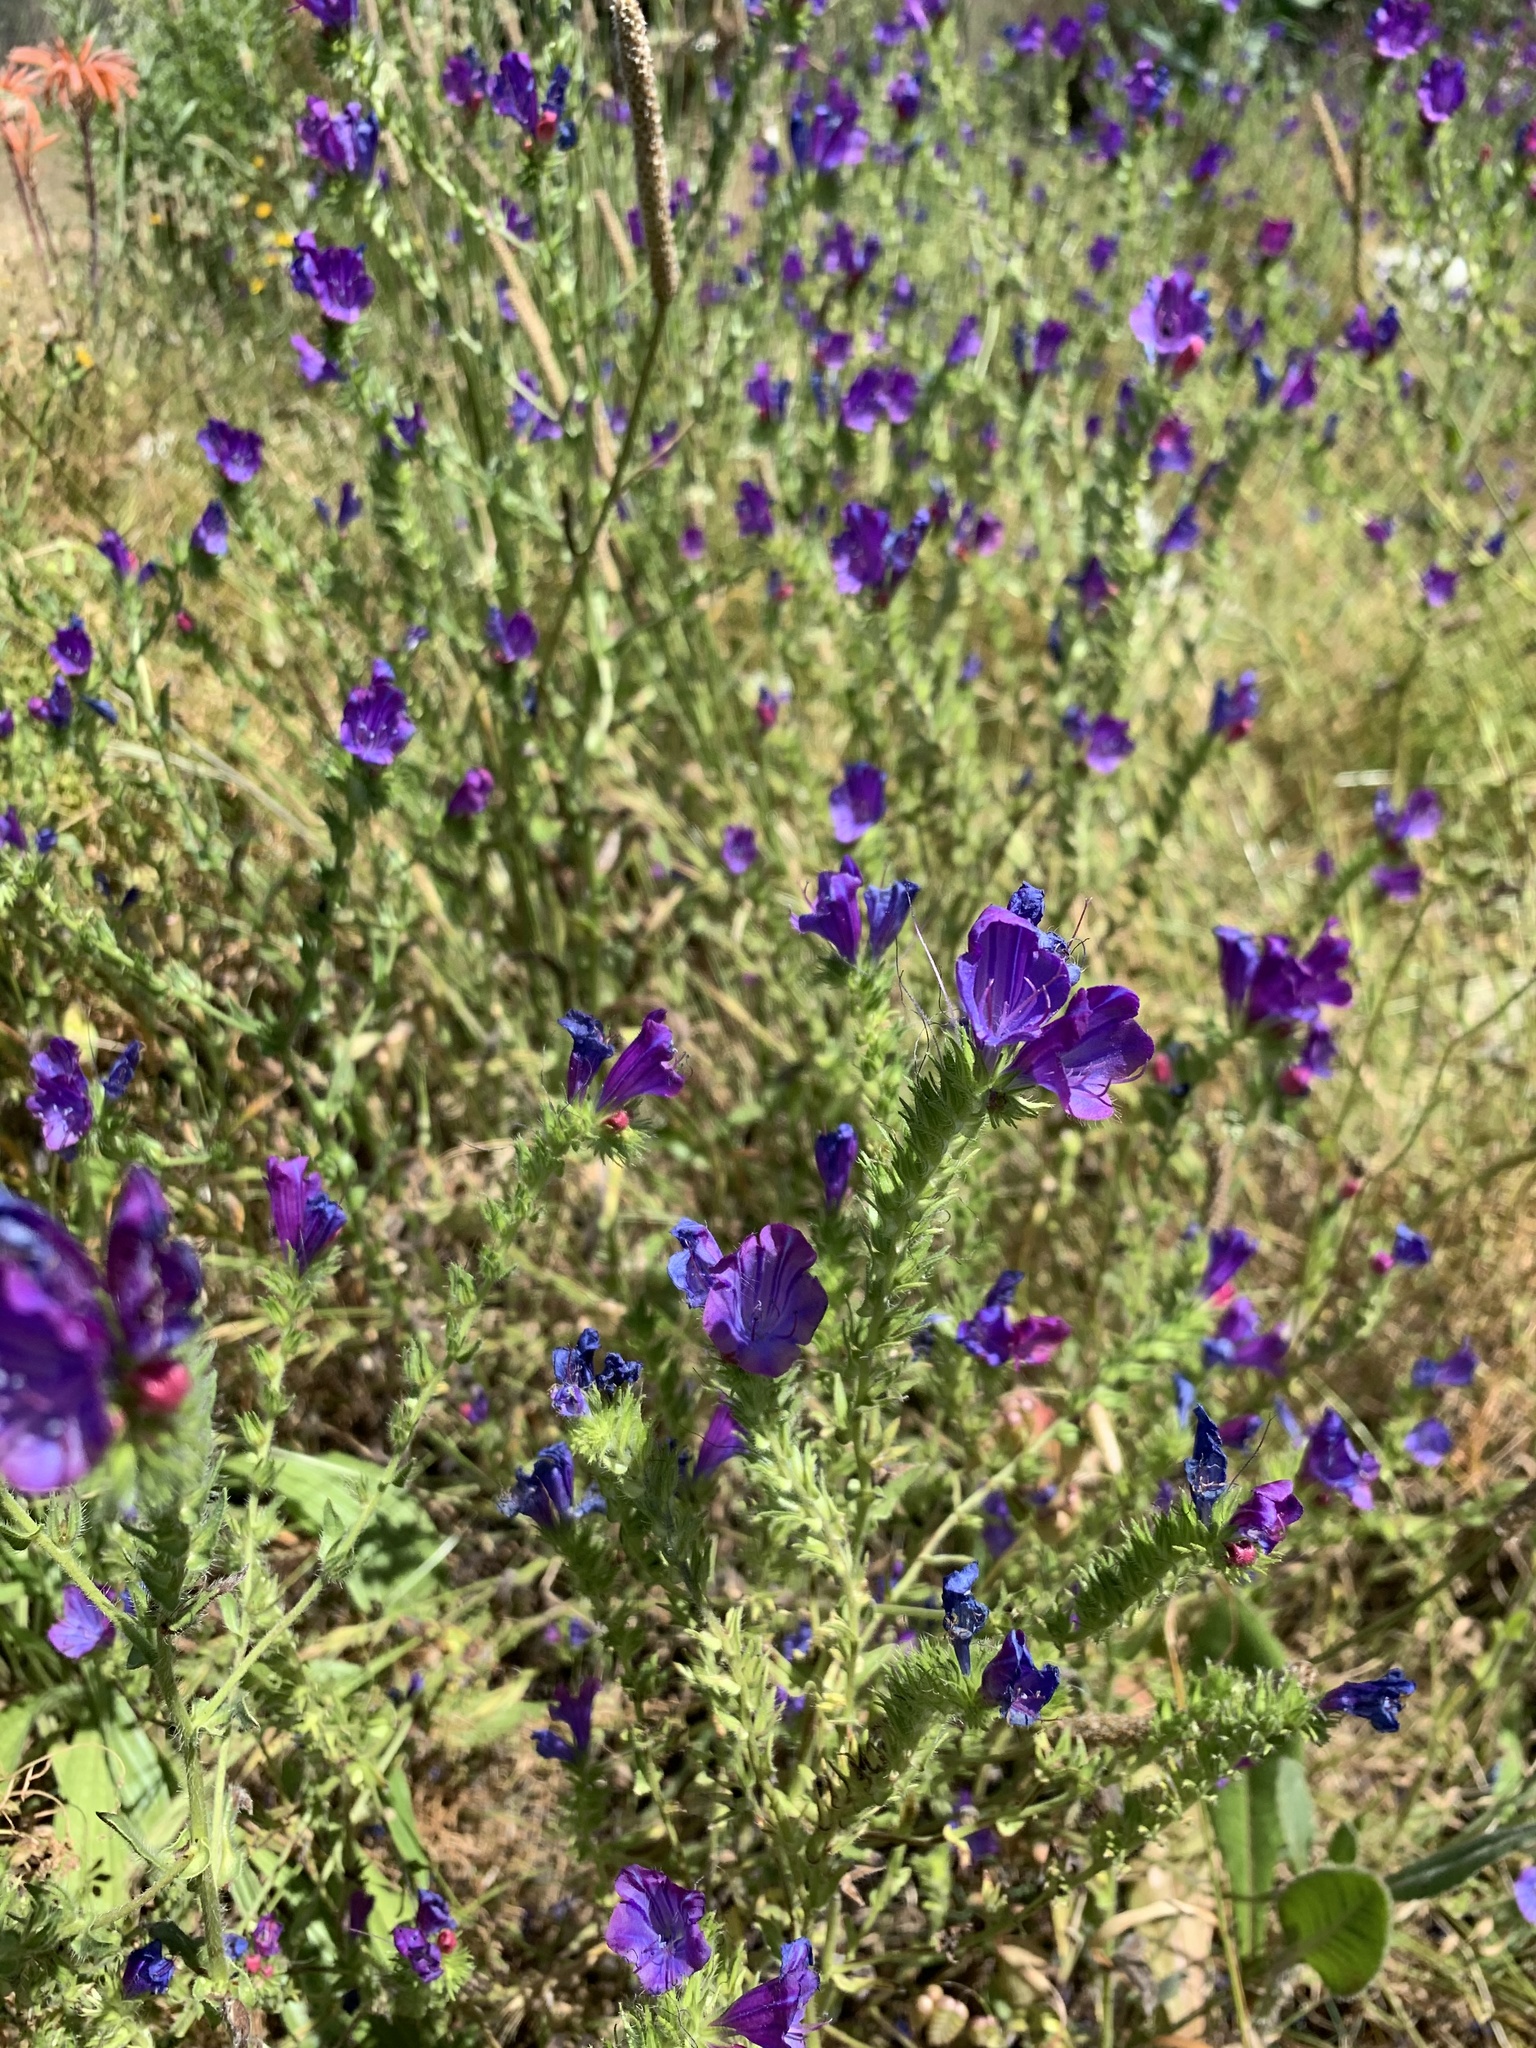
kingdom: Plantae
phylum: Tracheophyta
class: Magnoliopsida
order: Boraginales
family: Boraginaceae
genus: Echium
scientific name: Echium plantagineum
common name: Purple viper's-bugloss
